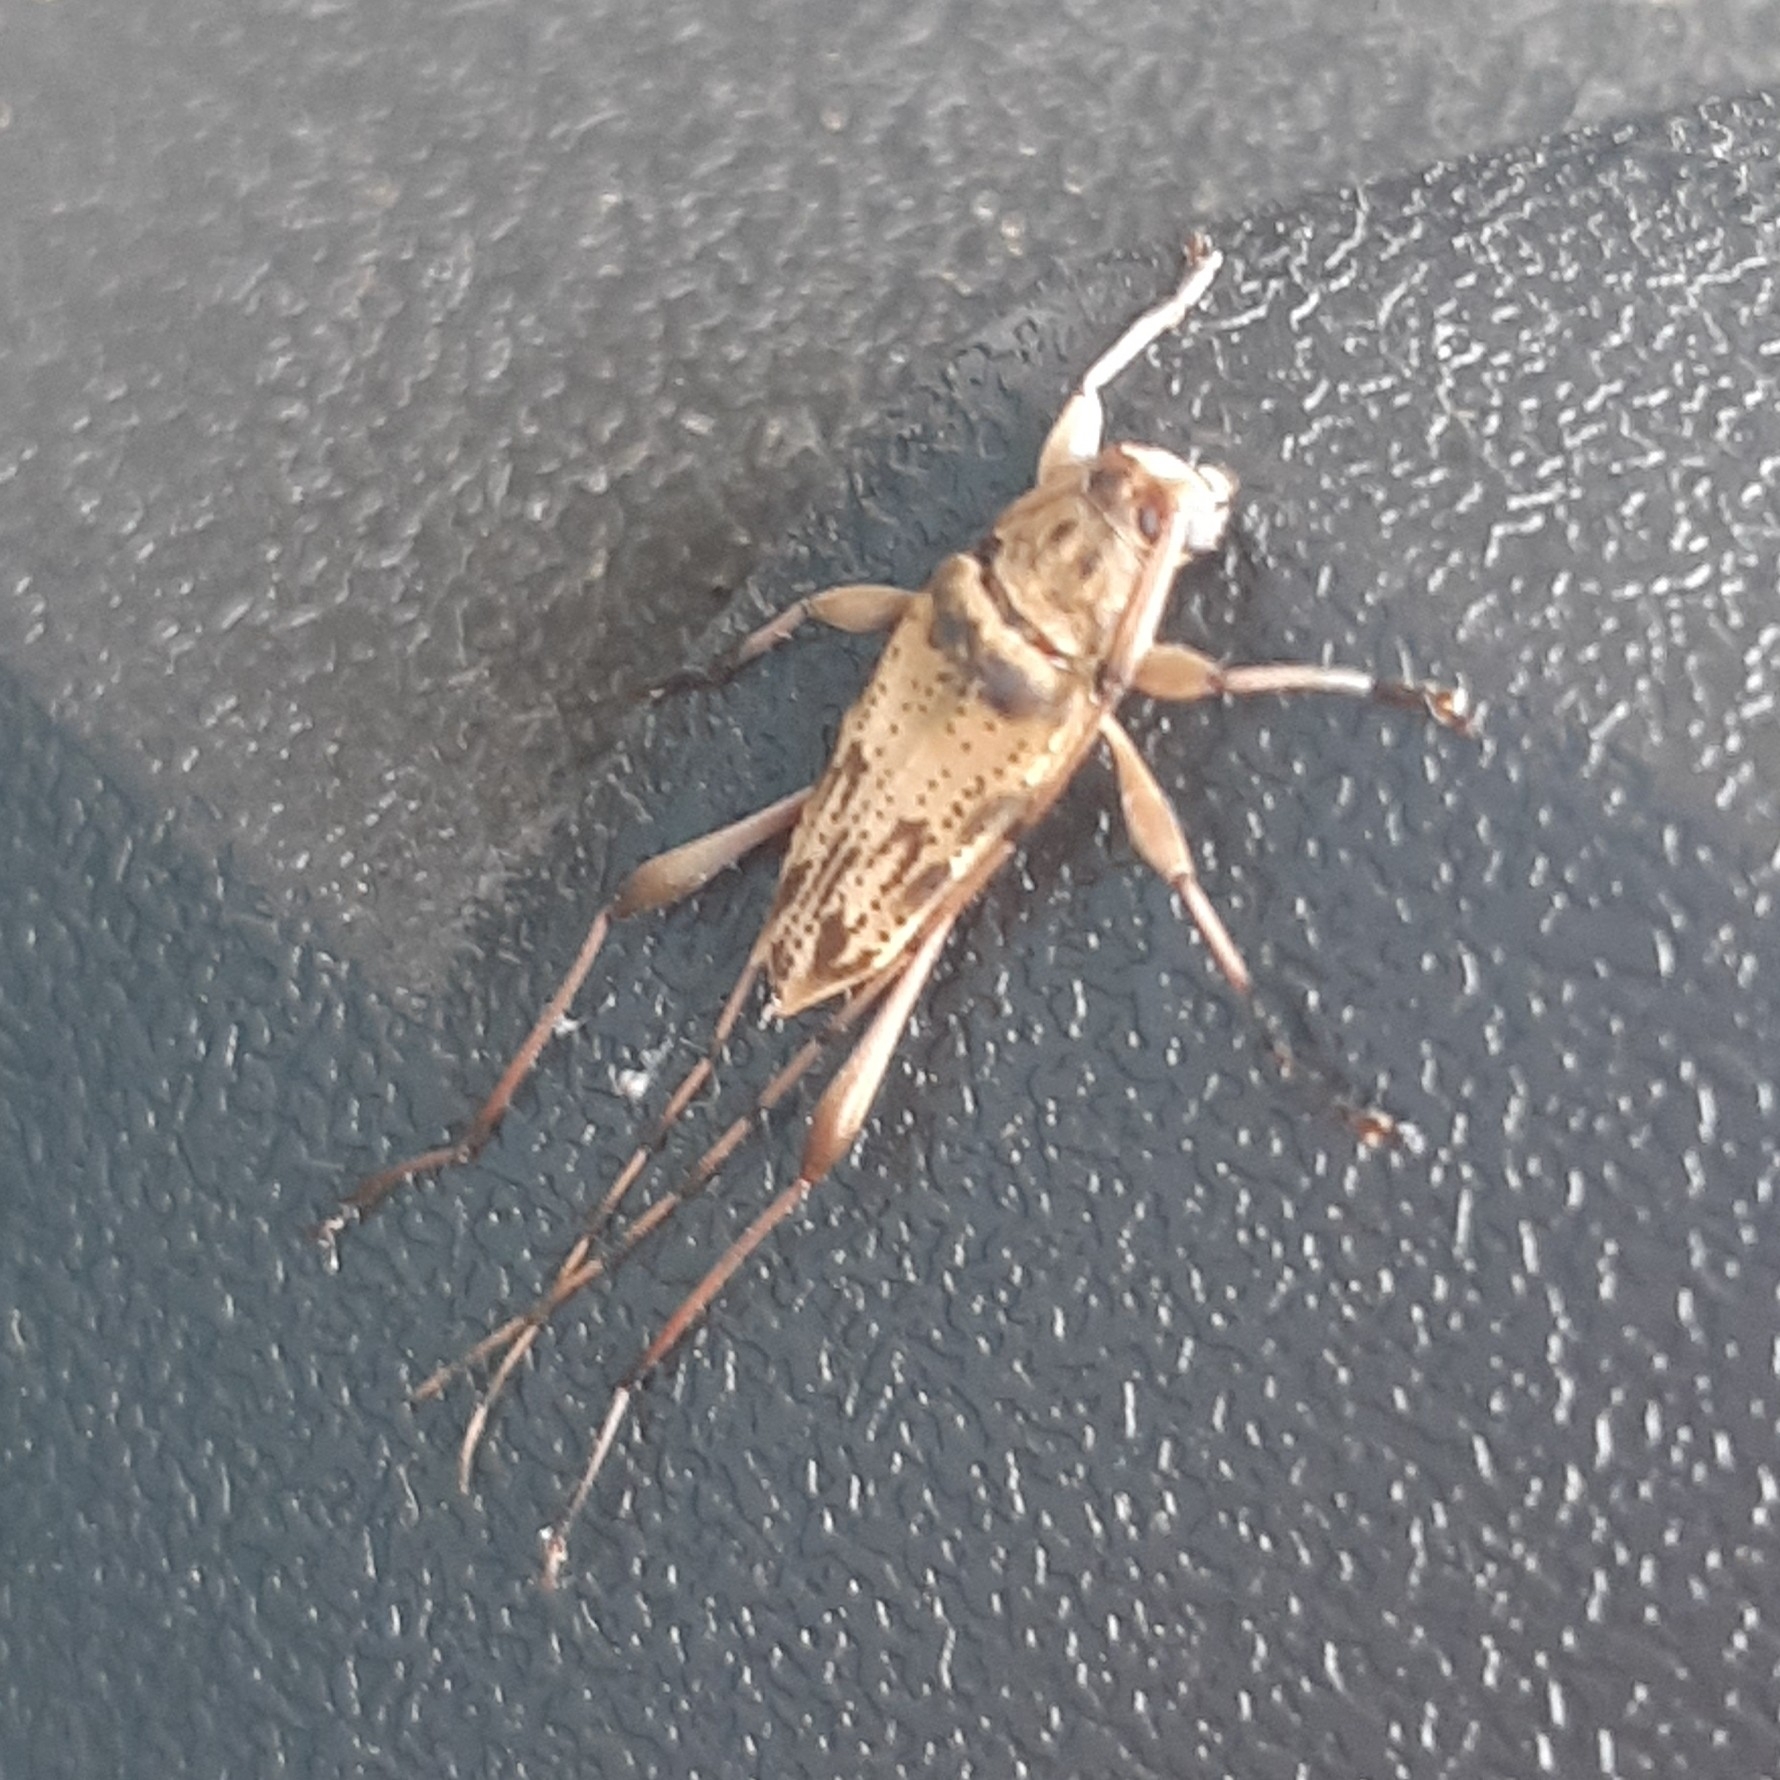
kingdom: Animalia
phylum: Arthropoda
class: Insecta
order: Coleoptera
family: Cerambycidae
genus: Anisopodus
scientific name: Anisopodus scriptipennis
